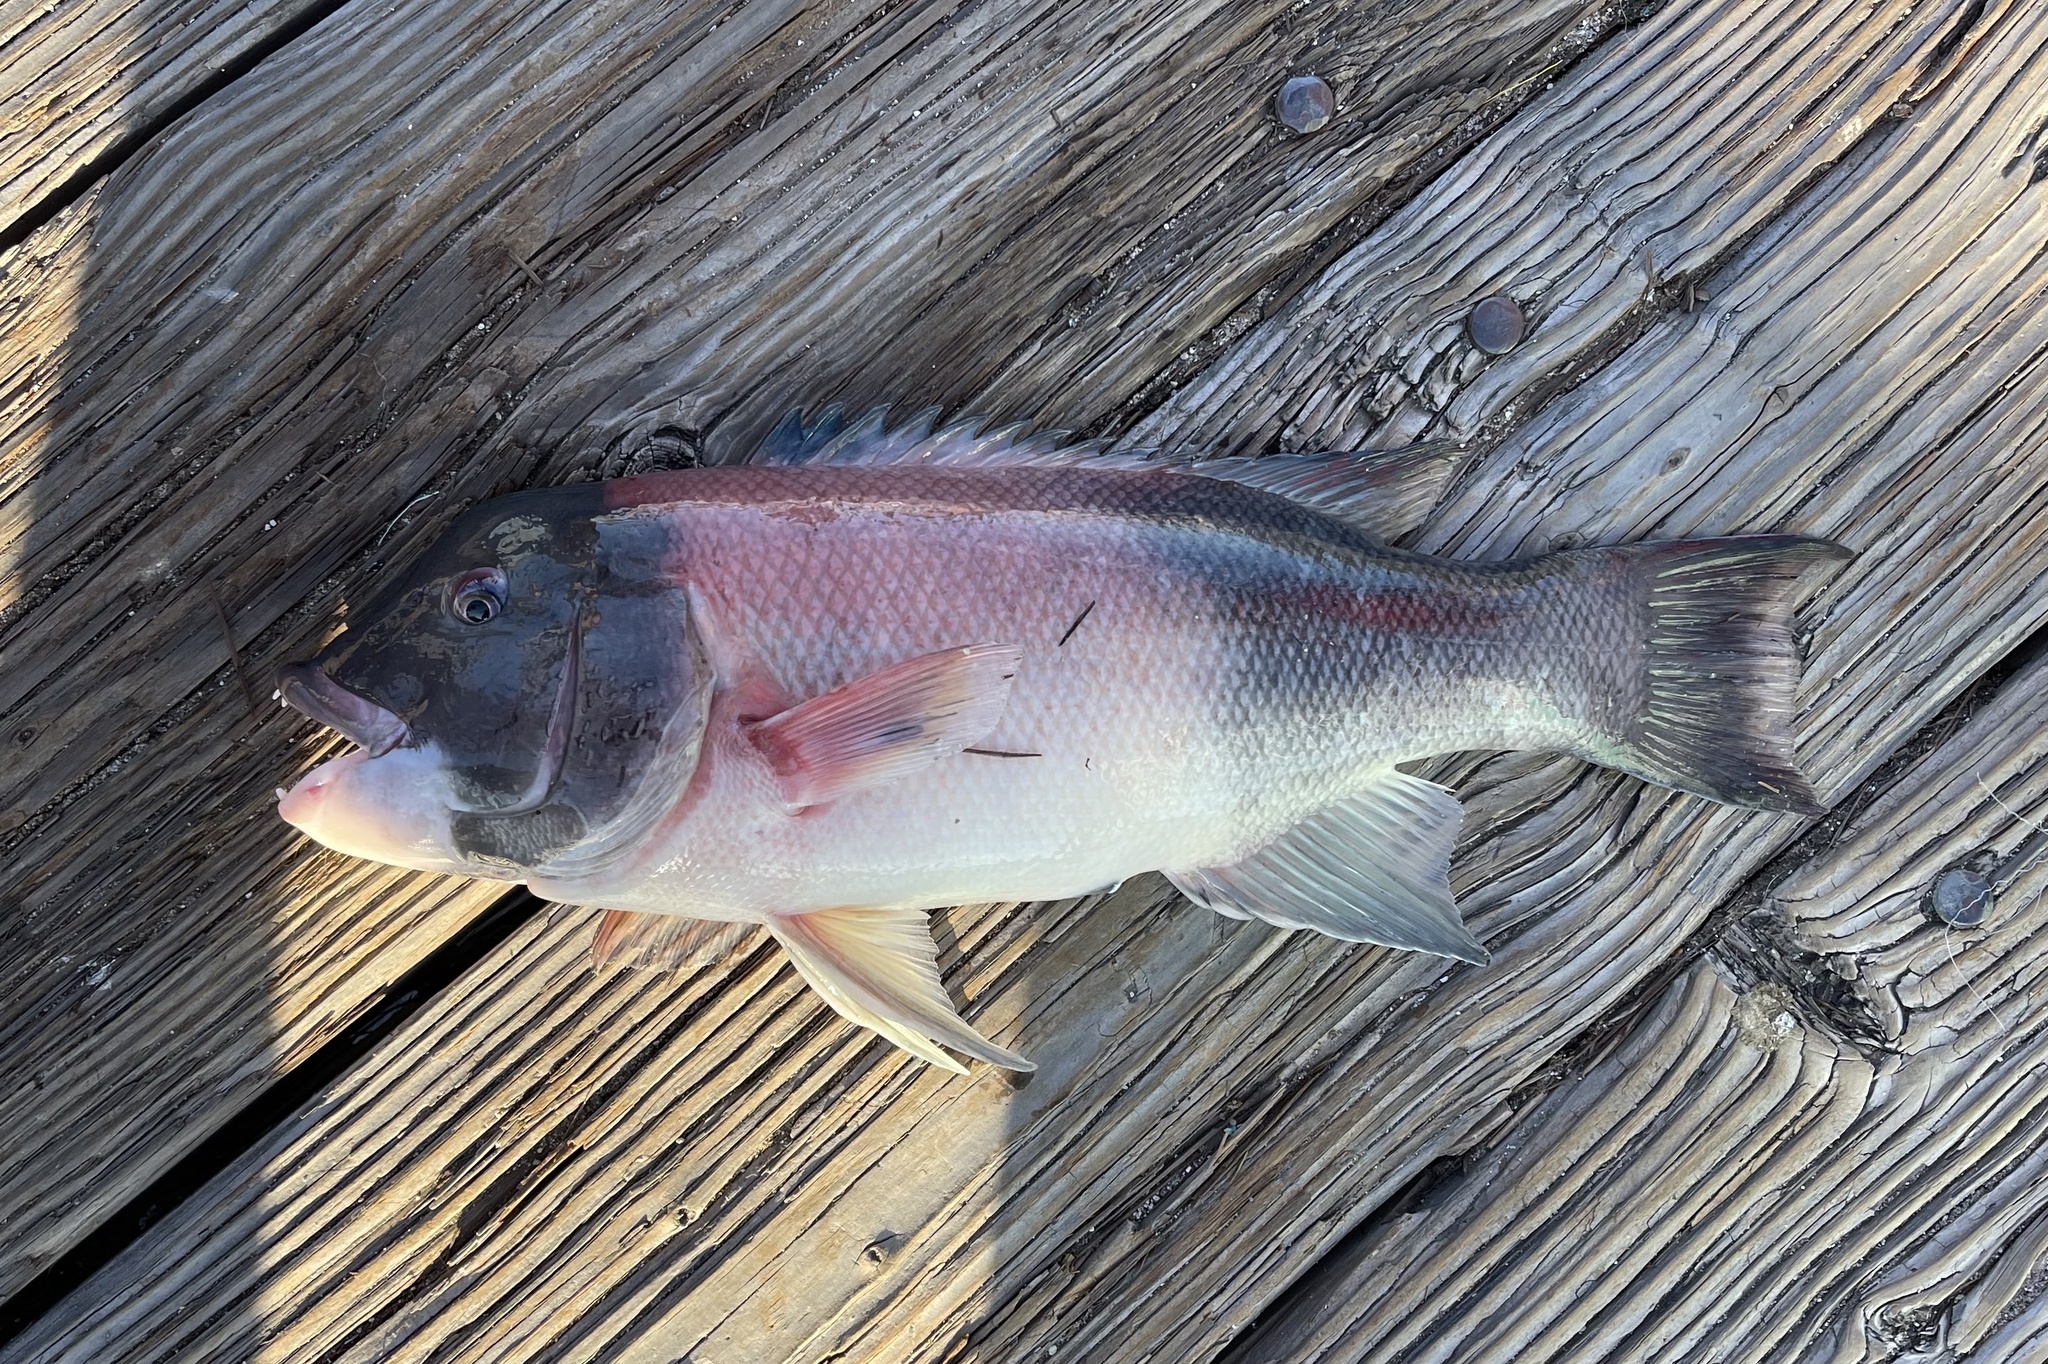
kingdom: Animalia
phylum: Chordata
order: Perciformes
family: Labridae
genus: Semicossyphus
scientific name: Semicossyphus pulcher
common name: California sheephead
